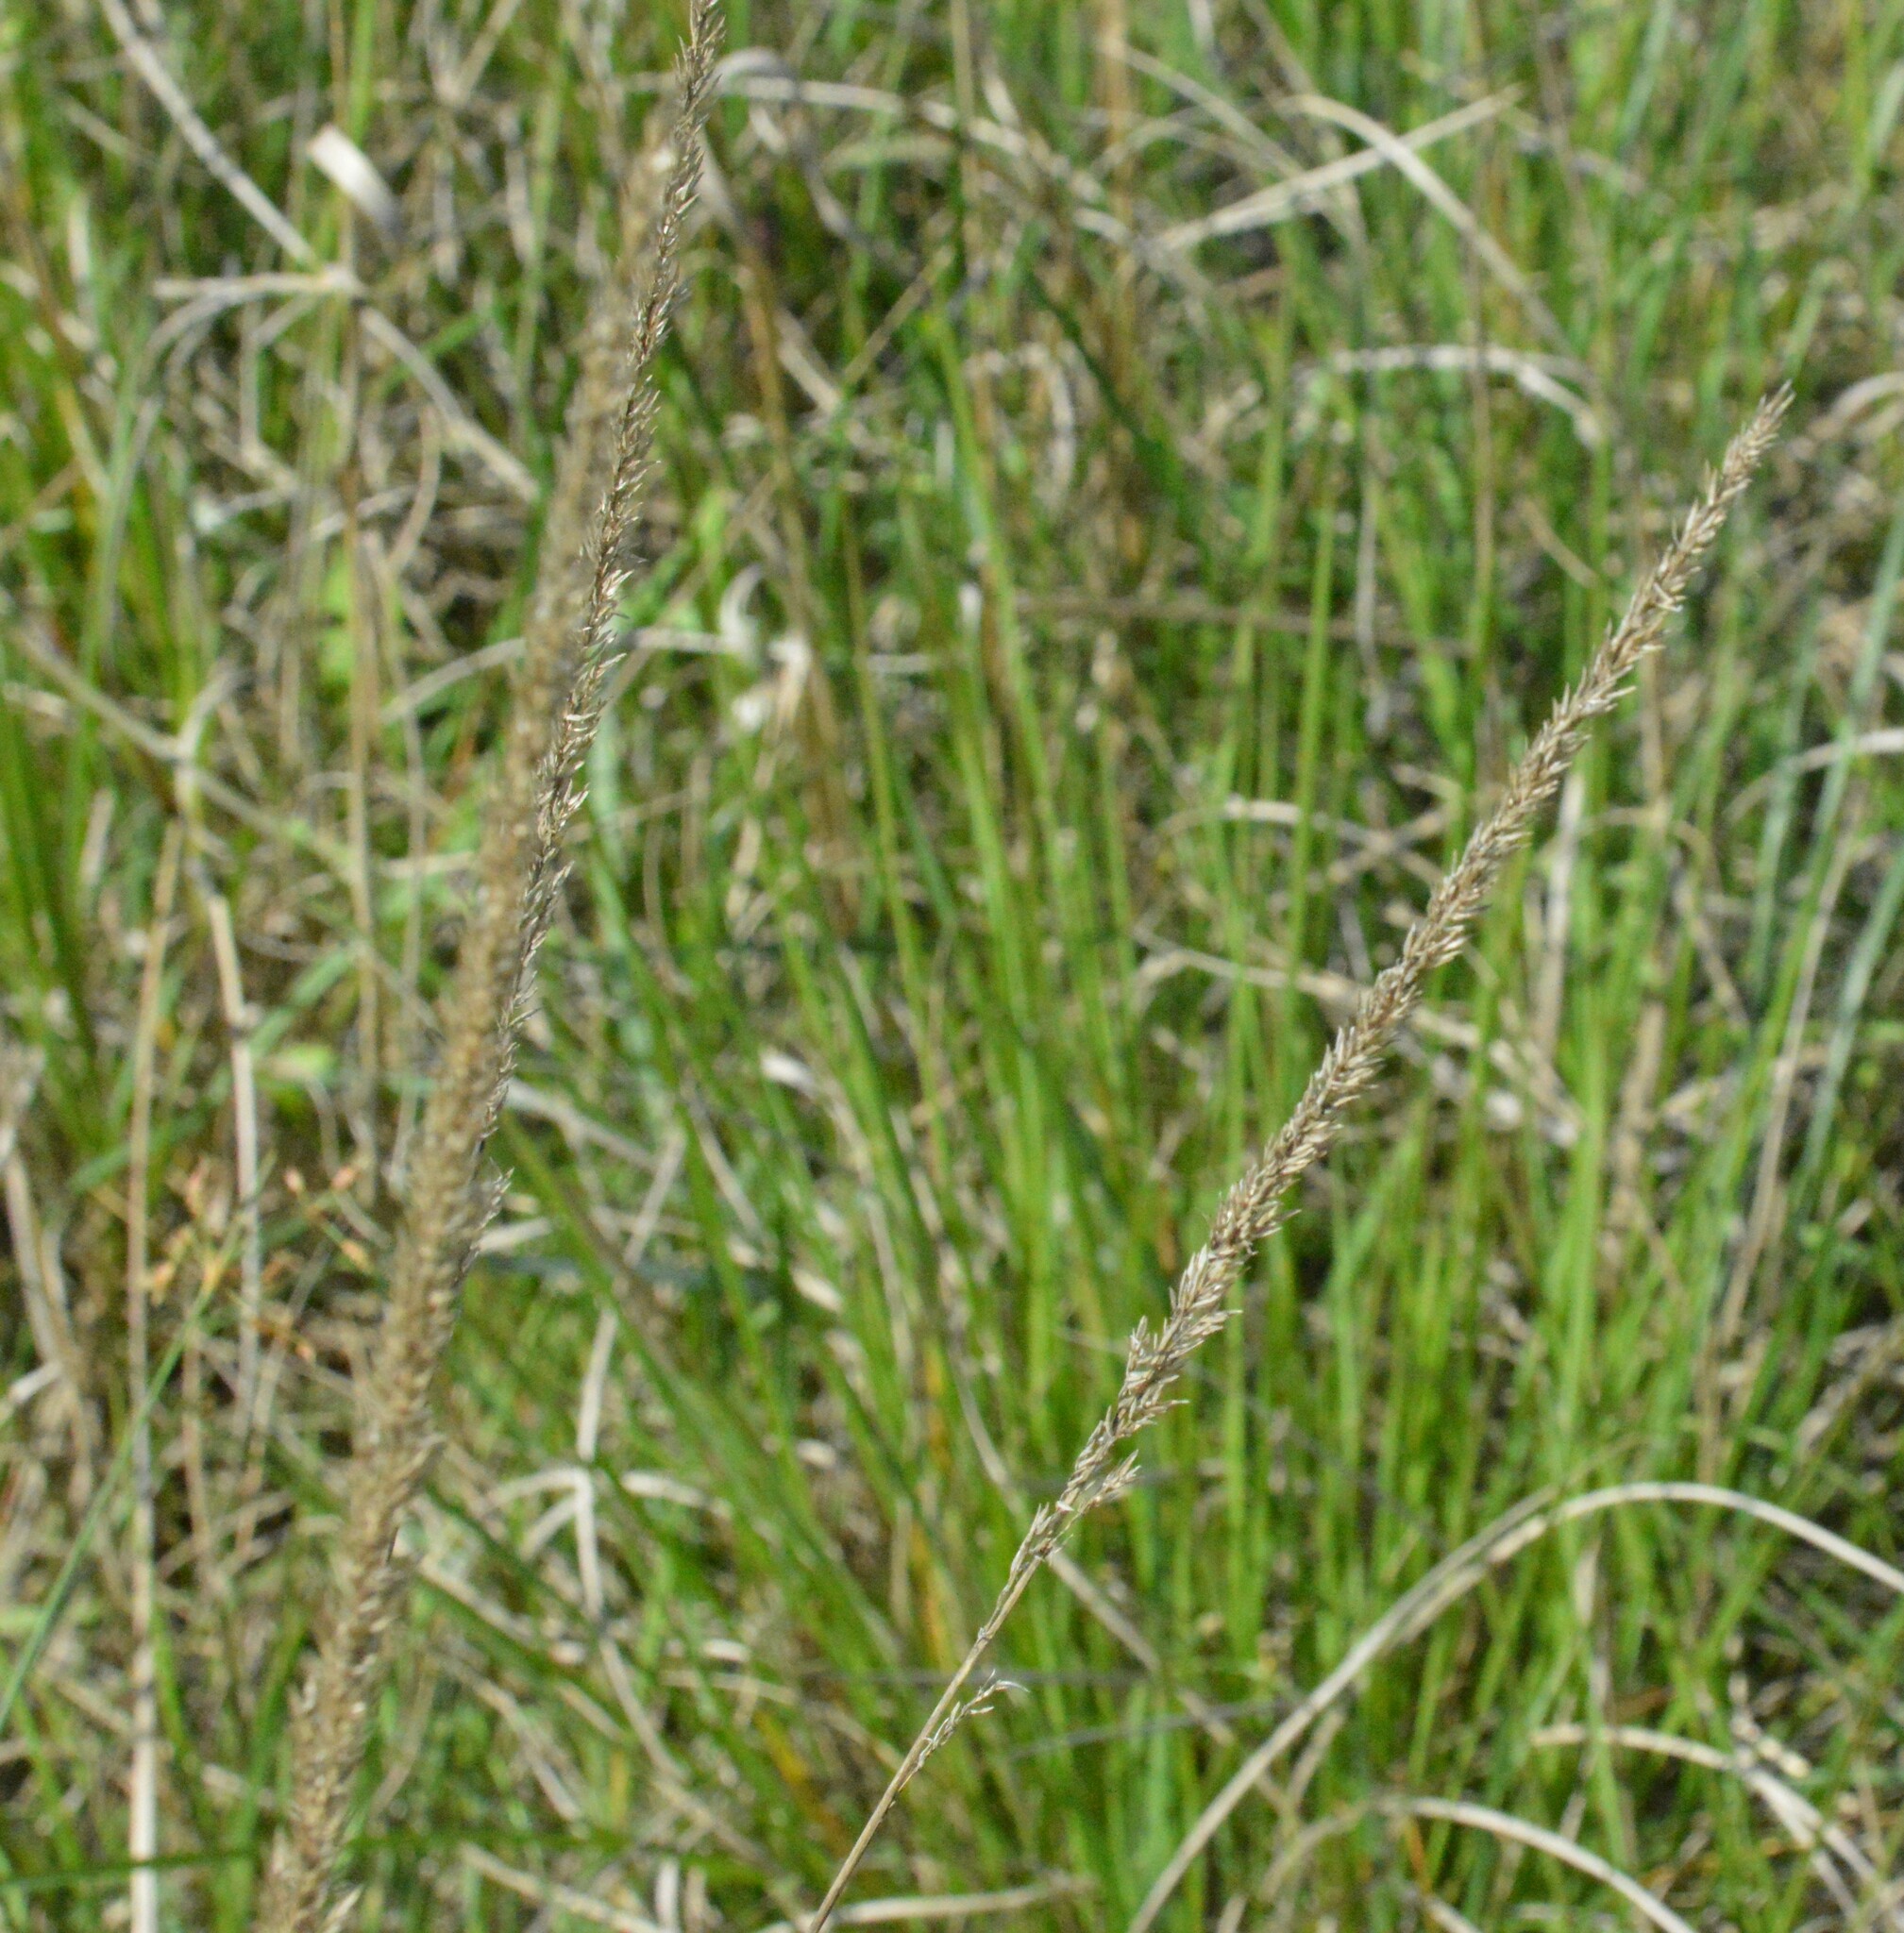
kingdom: Plantae
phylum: Tracheophyta
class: Liliopsida
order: Poales
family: Poaceae
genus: Tridens
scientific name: Tridens strictus
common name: Long-spike tridens
